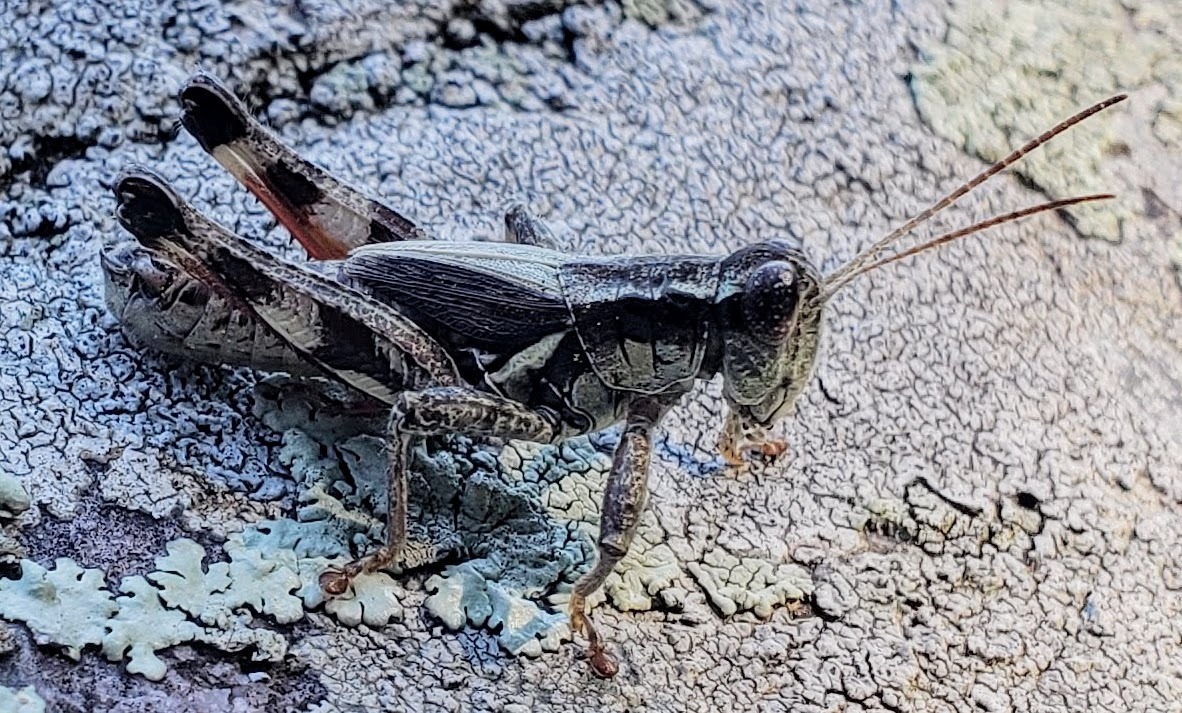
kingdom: Animalia
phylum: Arthropoda
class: Insecta
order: Orthoptera
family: Acrididae
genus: Melanoplus
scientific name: Melanoplus walshii
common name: Walsh's locust
